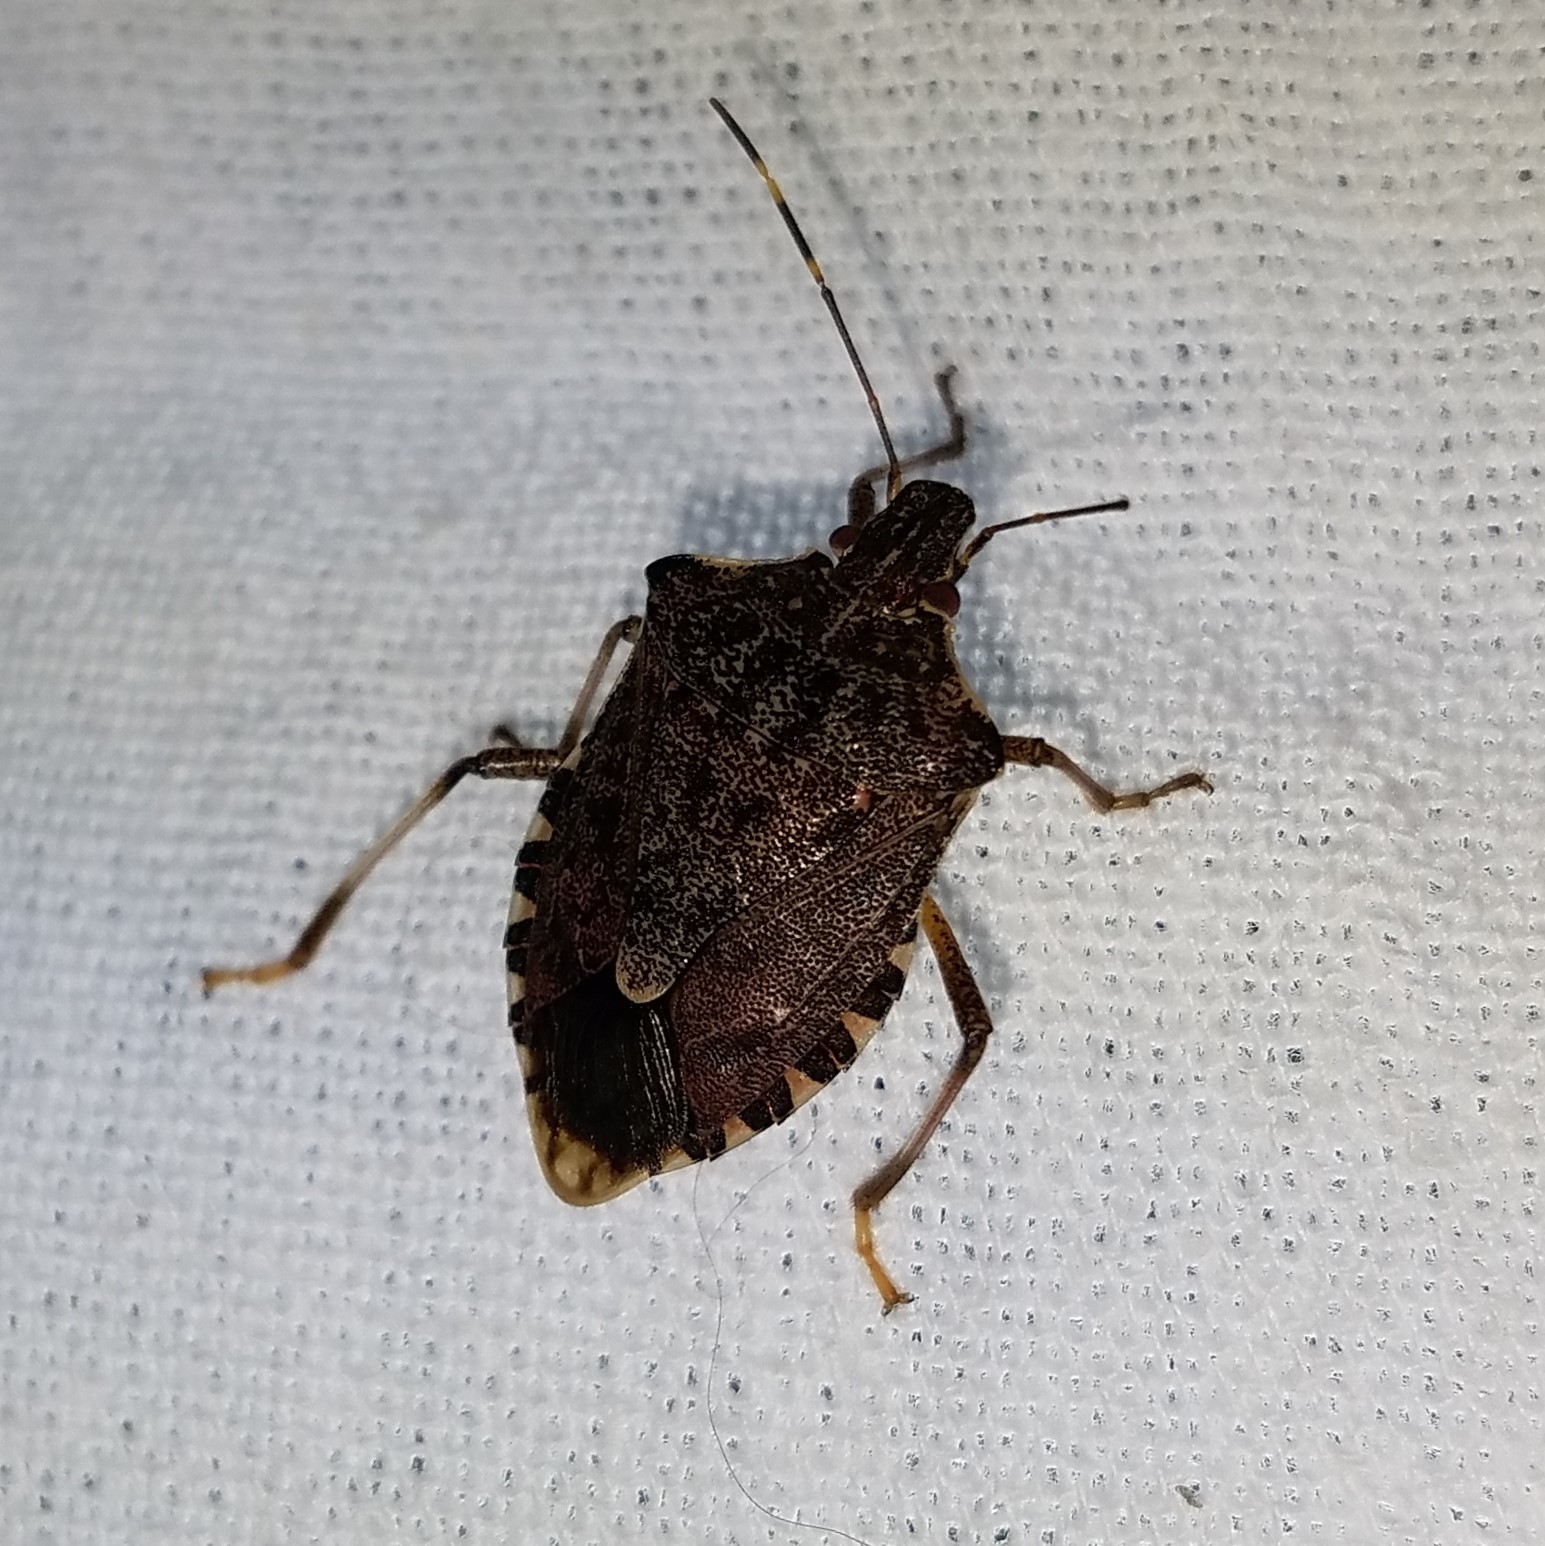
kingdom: Animalia
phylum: Arthropoda
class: Insecta
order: Hemiptera
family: Pentatomidae
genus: Halyomorpha
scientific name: Halyomorpha halys
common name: Brown marmorated stink bug
